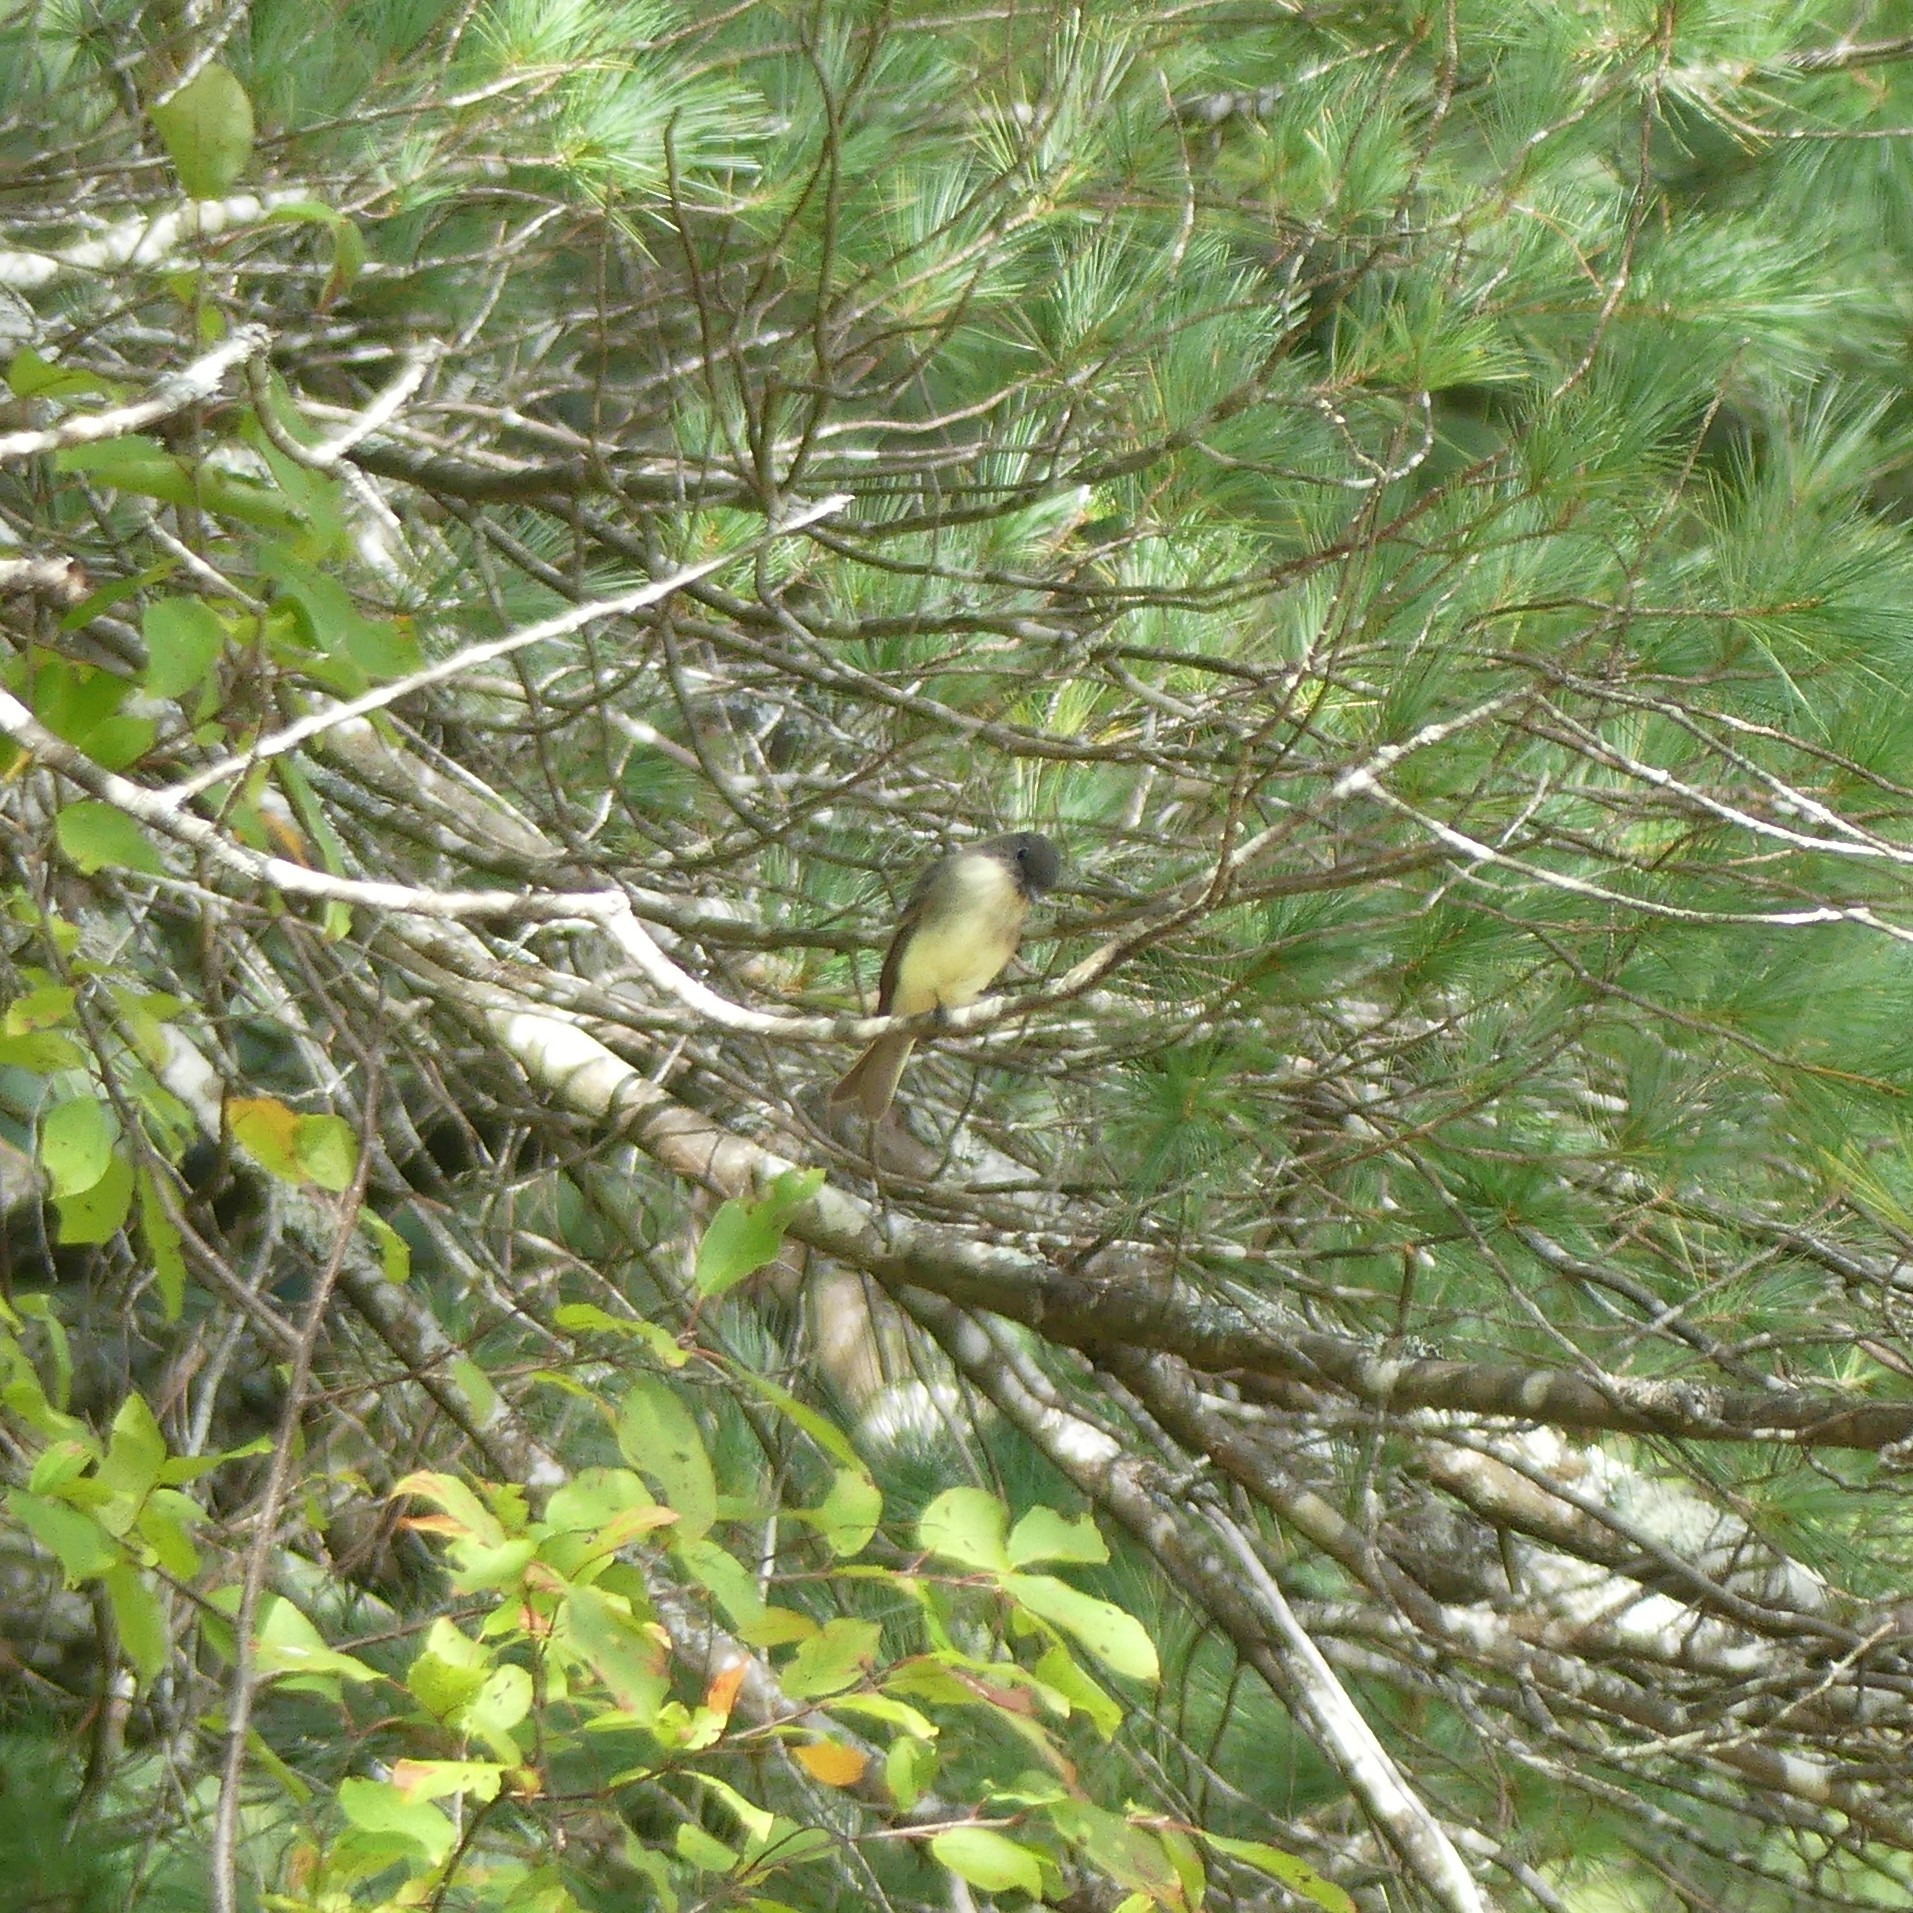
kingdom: Animalia
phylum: Chordata
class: Aves
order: Passeriformes
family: Tyrannidae
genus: Sayornis
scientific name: Sayornis phoebe
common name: Eastern phoebe
